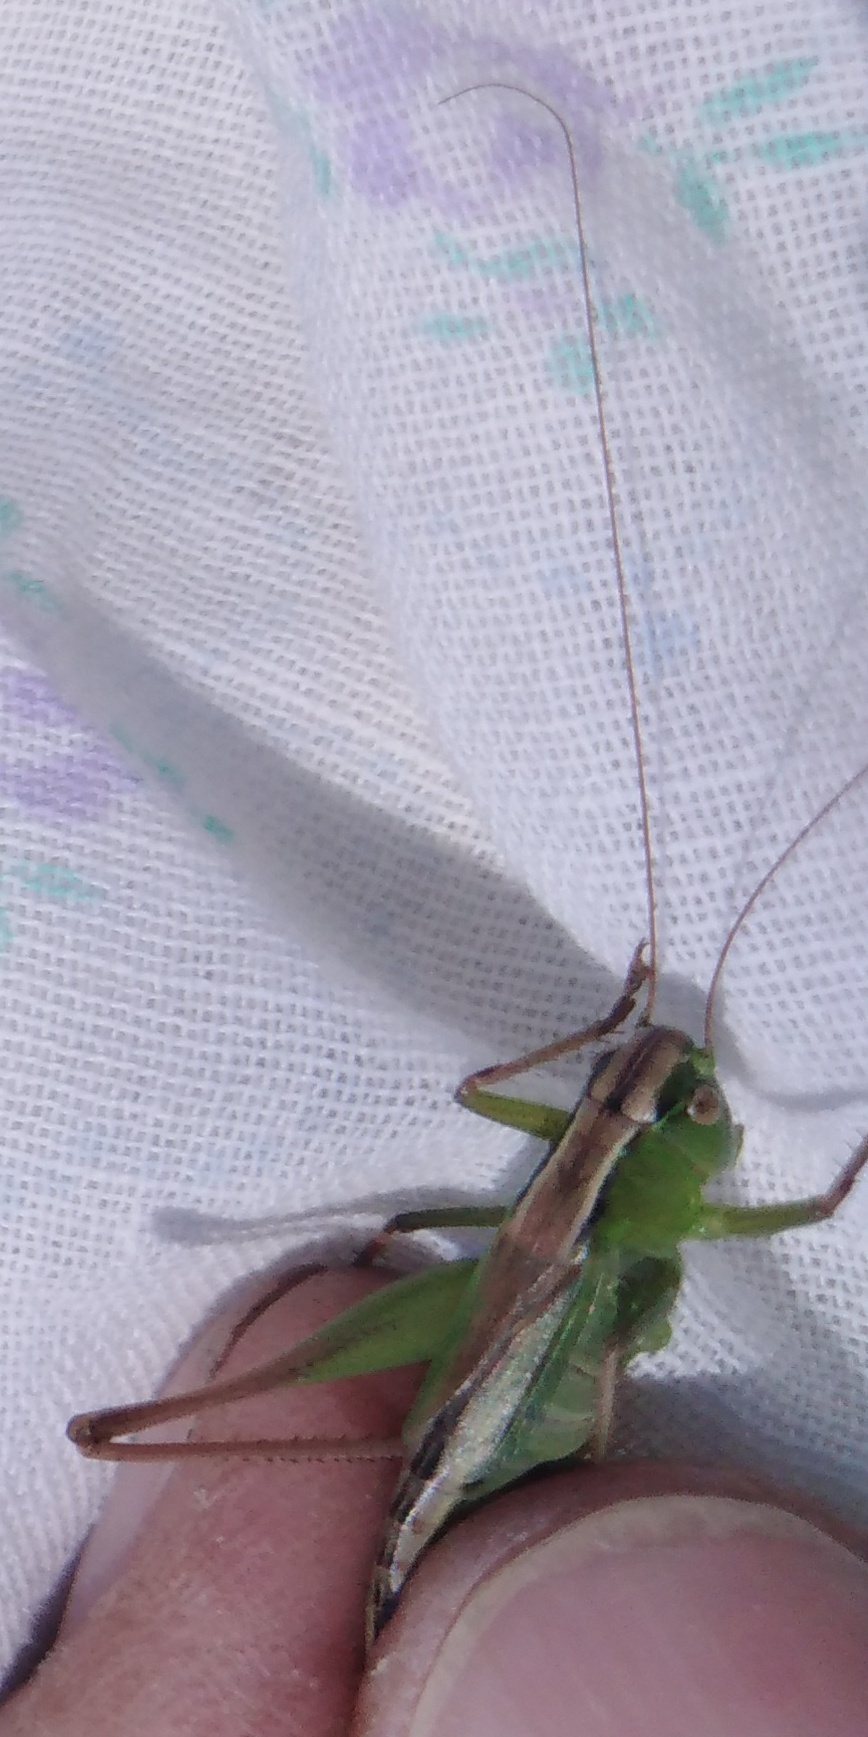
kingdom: Animalia
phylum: Arthropoda
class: Insecta
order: Orthoptera
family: Tettigoniidae
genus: Bicolorana
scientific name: Bicolorana bicolor
